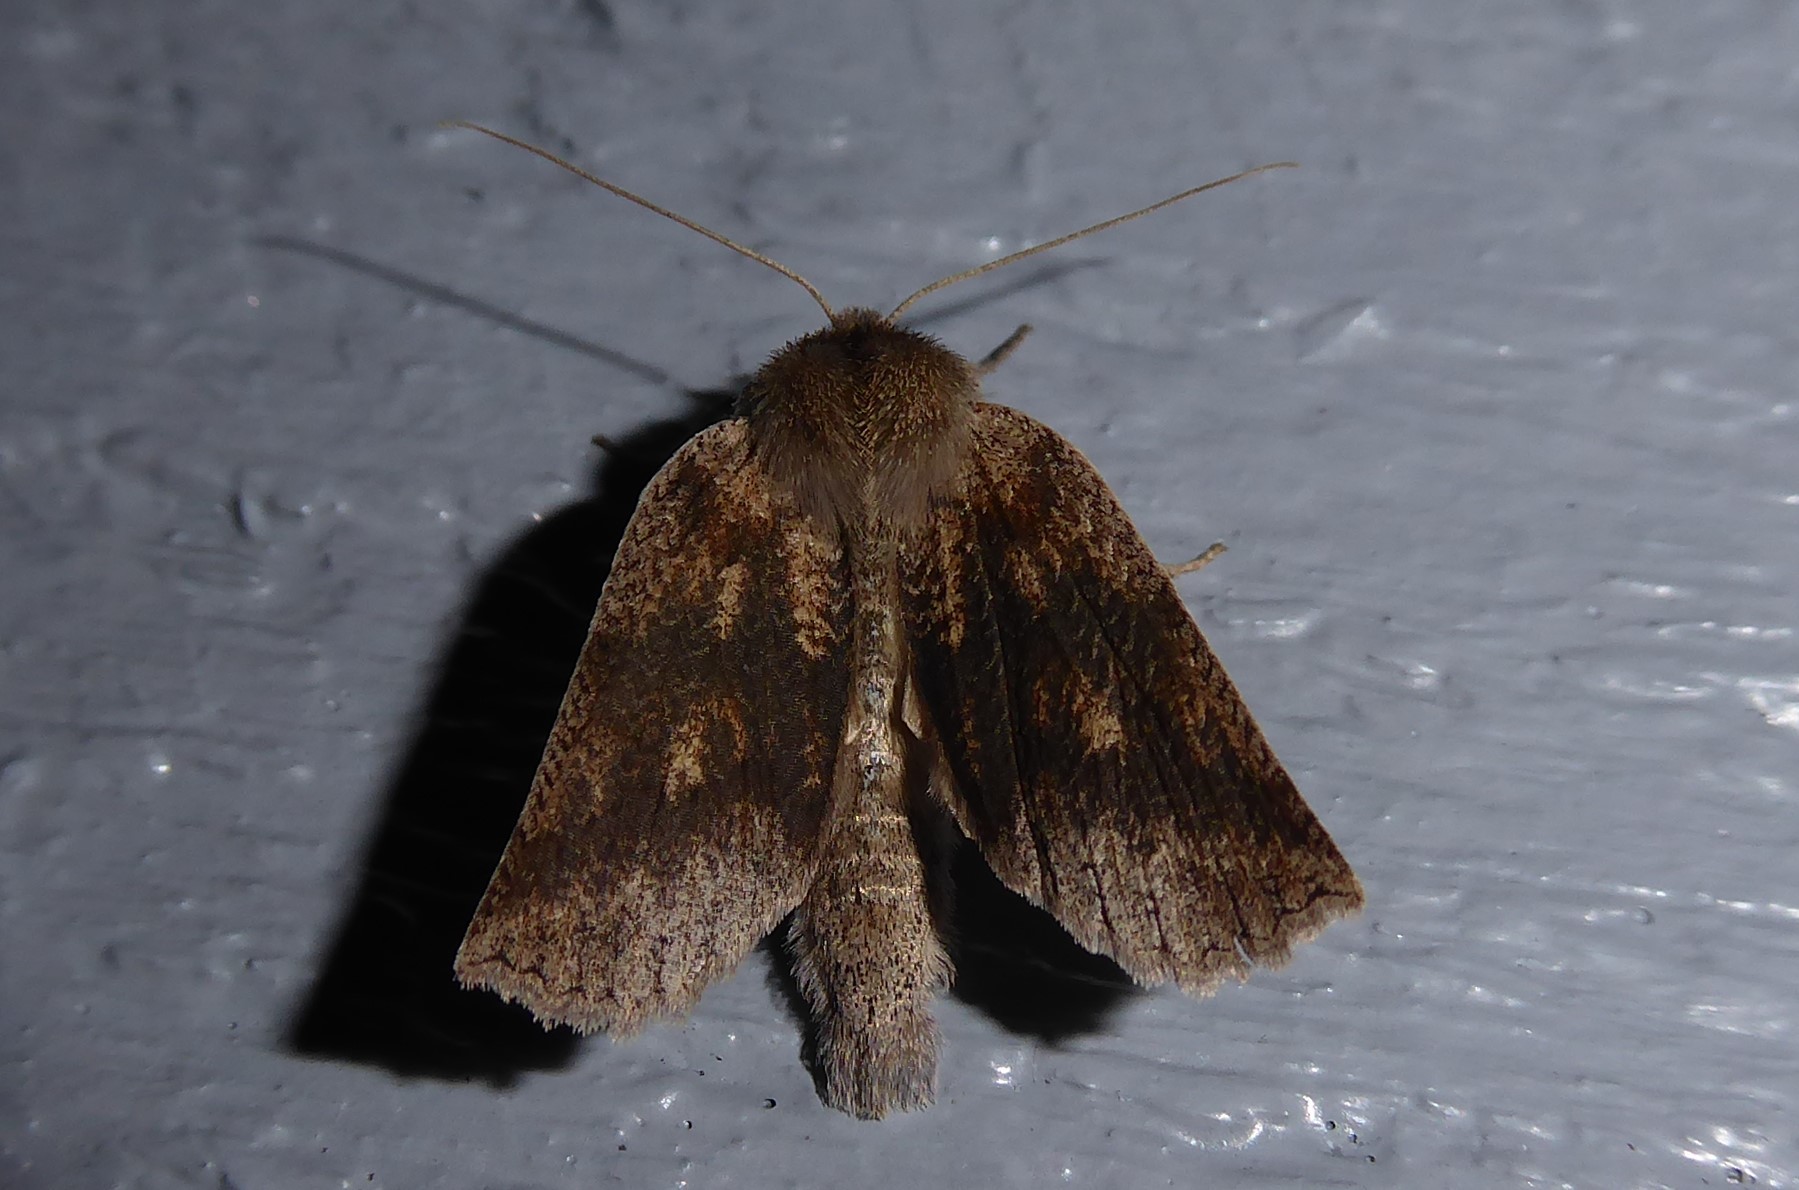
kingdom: Animalia
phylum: Arthropoda
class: Insecta
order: Lepidoptera
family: Geometridae
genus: Declana
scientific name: Declana leptomera
